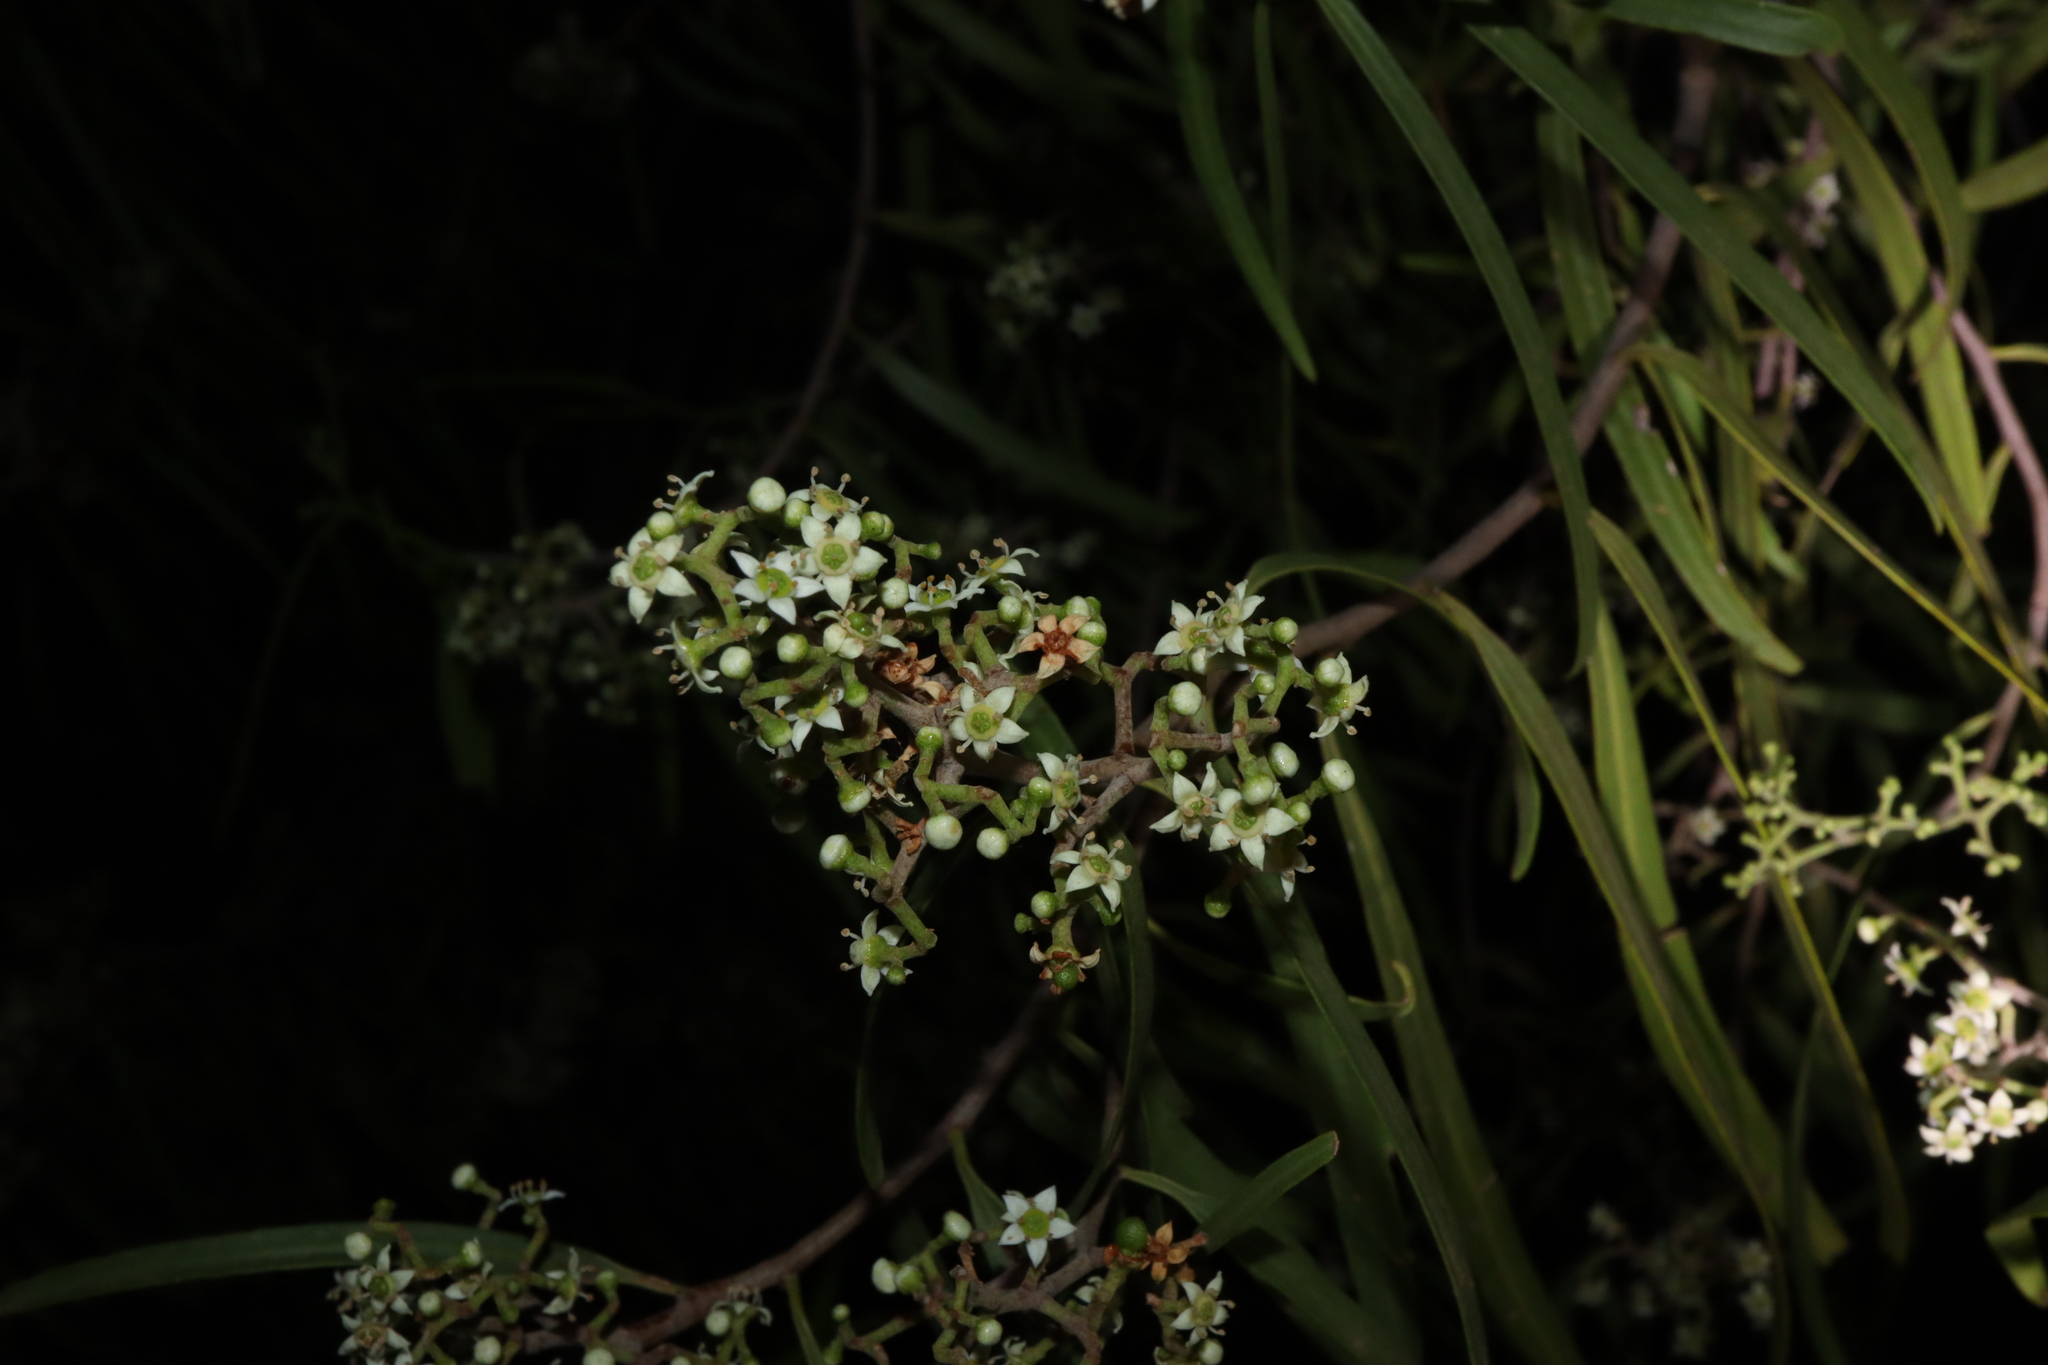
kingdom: Plantae
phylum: Tracheophyta
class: Magnoliopsida
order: Sapindales
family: Rutaceae
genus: Geijera
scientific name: Geijera parviflora
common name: Wilga
